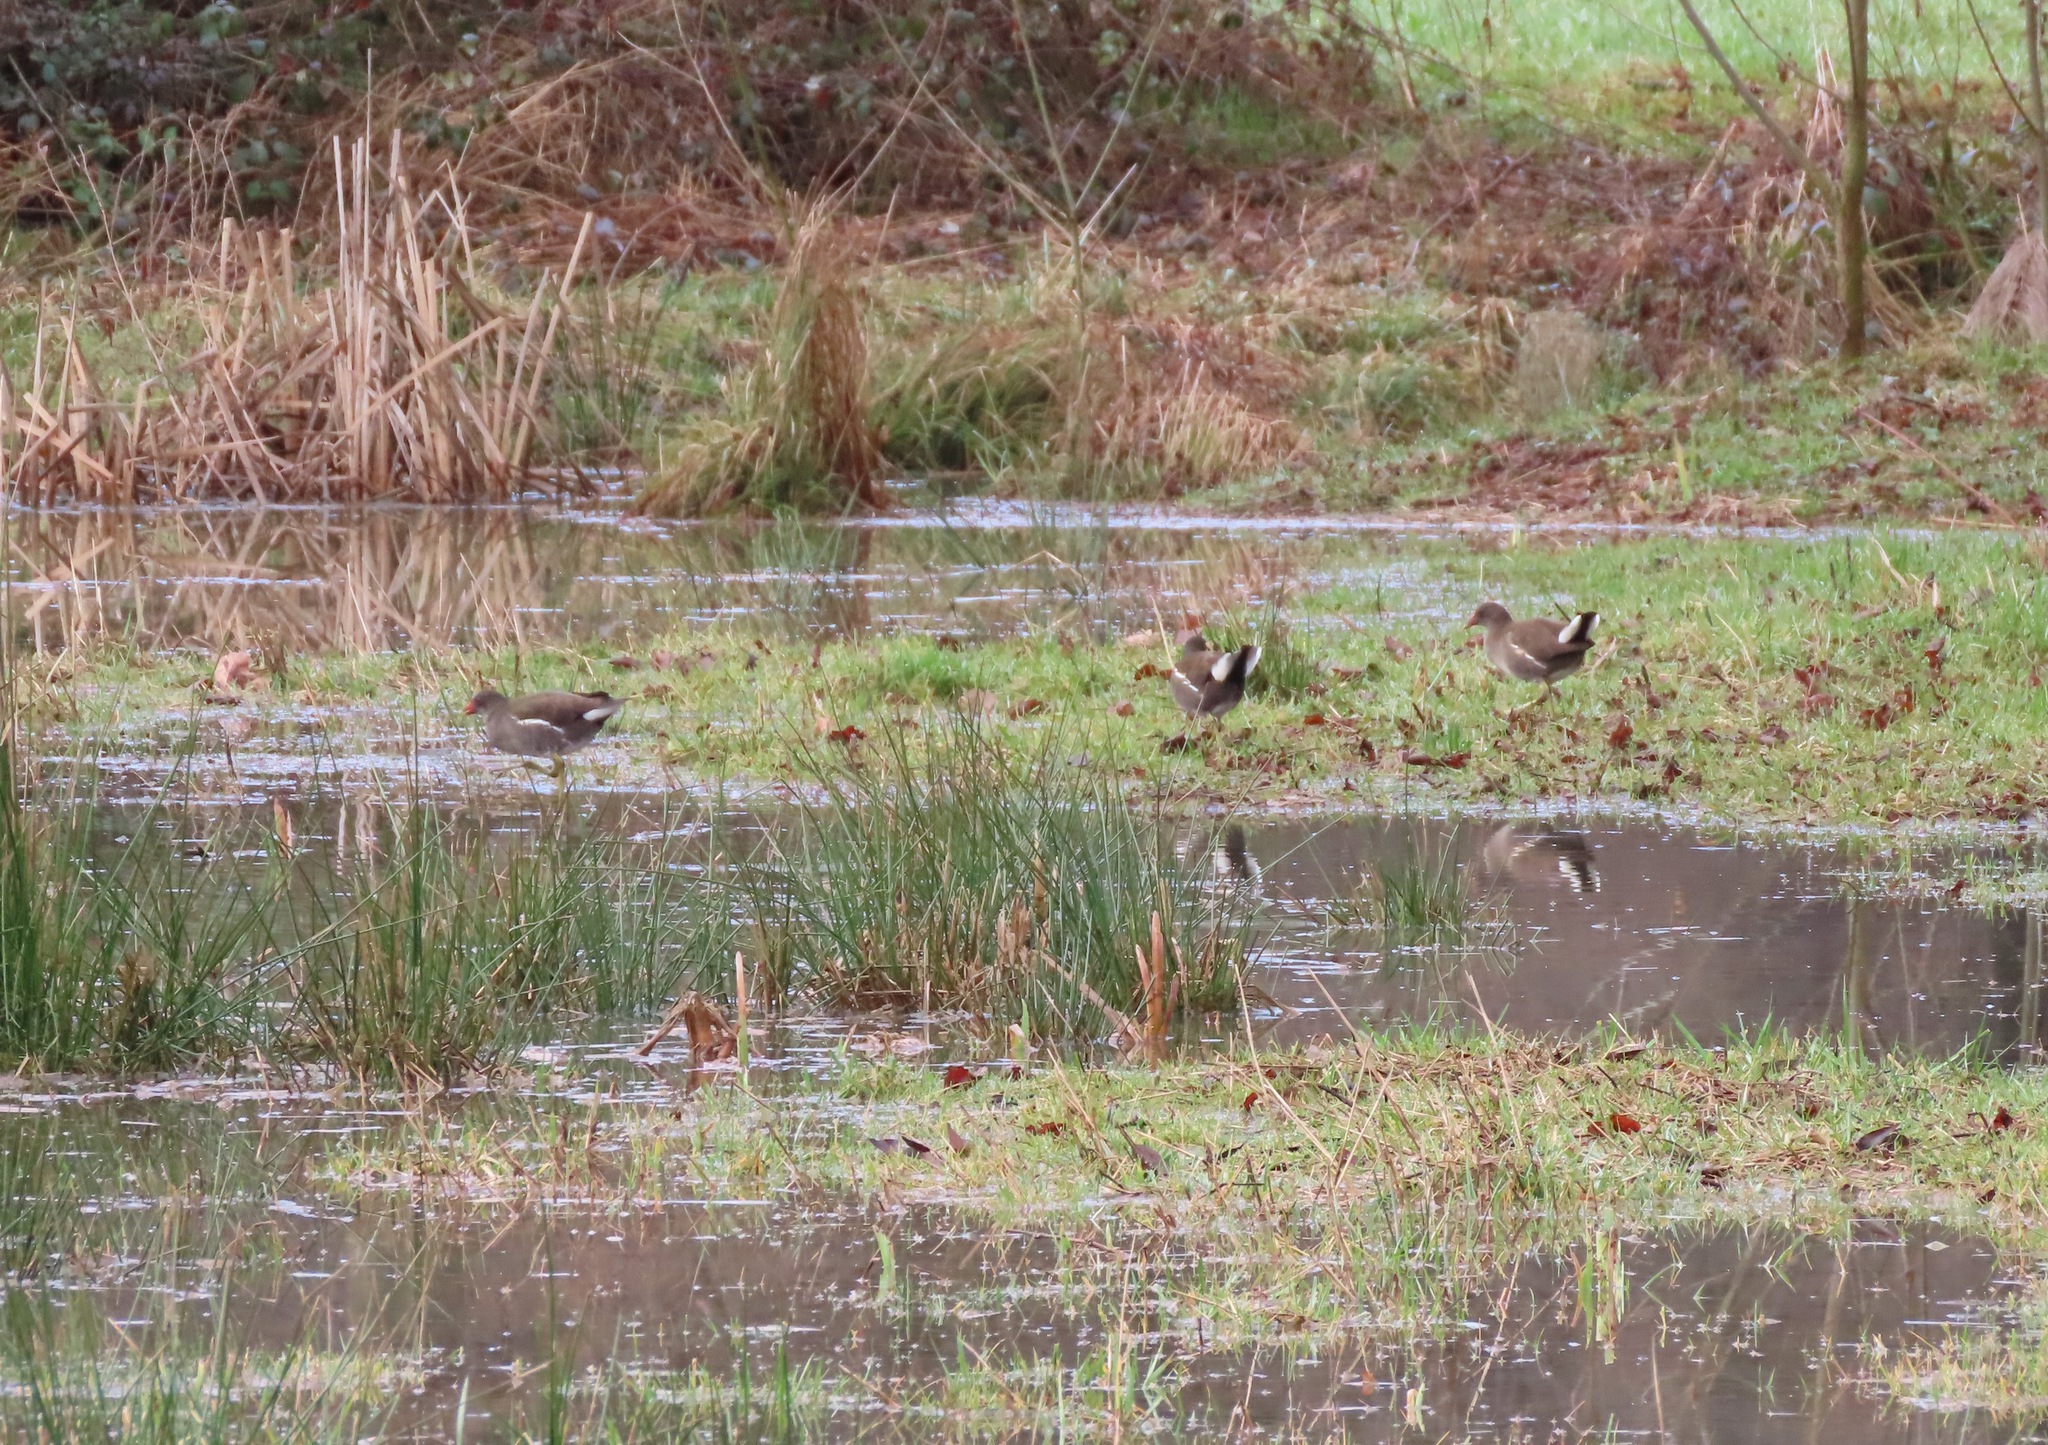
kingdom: Animalia
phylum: Chordata
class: Aves
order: Gruiformes
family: Rallidae
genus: Gallinula
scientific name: Gallinula chloropus
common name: Common moorhen
